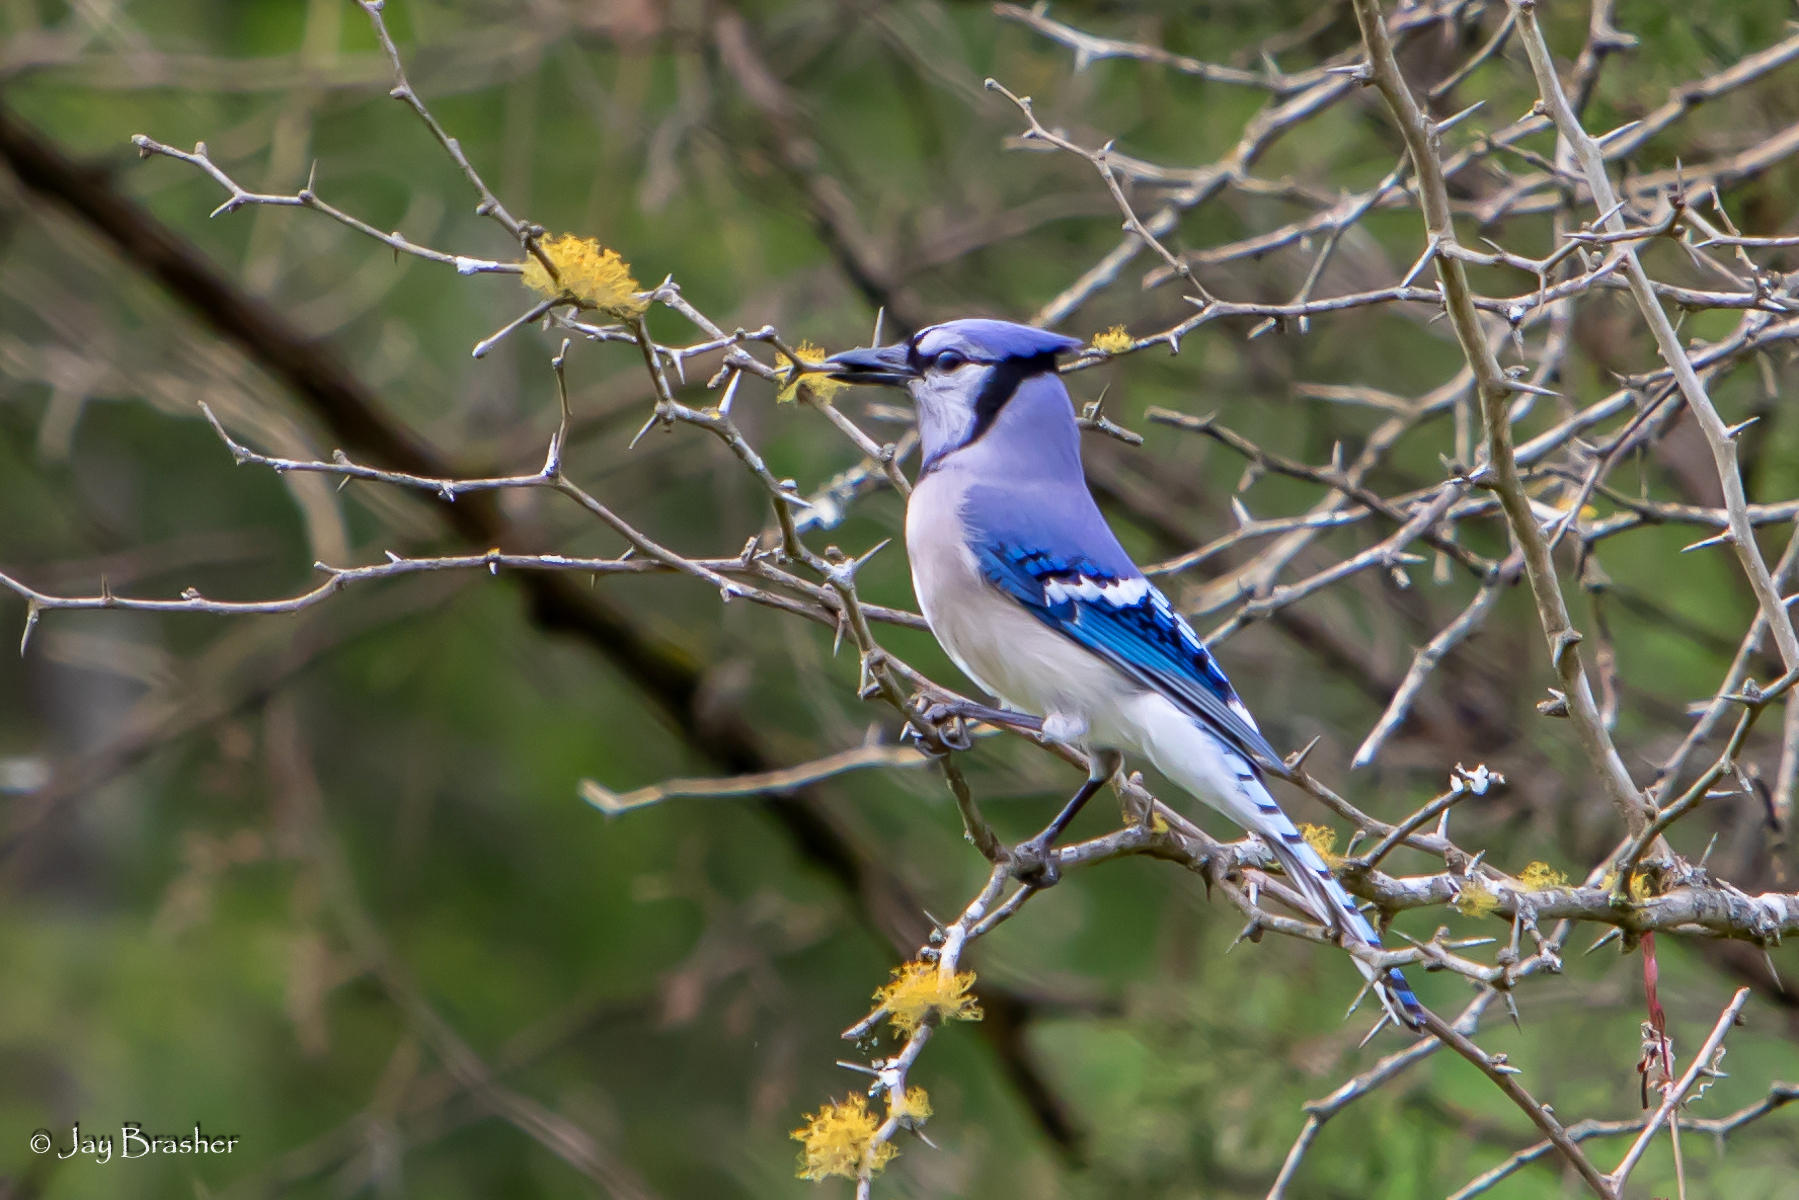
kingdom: Animalia
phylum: Chordata
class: Aves
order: Passeriformes
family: Corvidae
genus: Cyanocitta
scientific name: Cyanocitta cristata
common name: Blue jay
